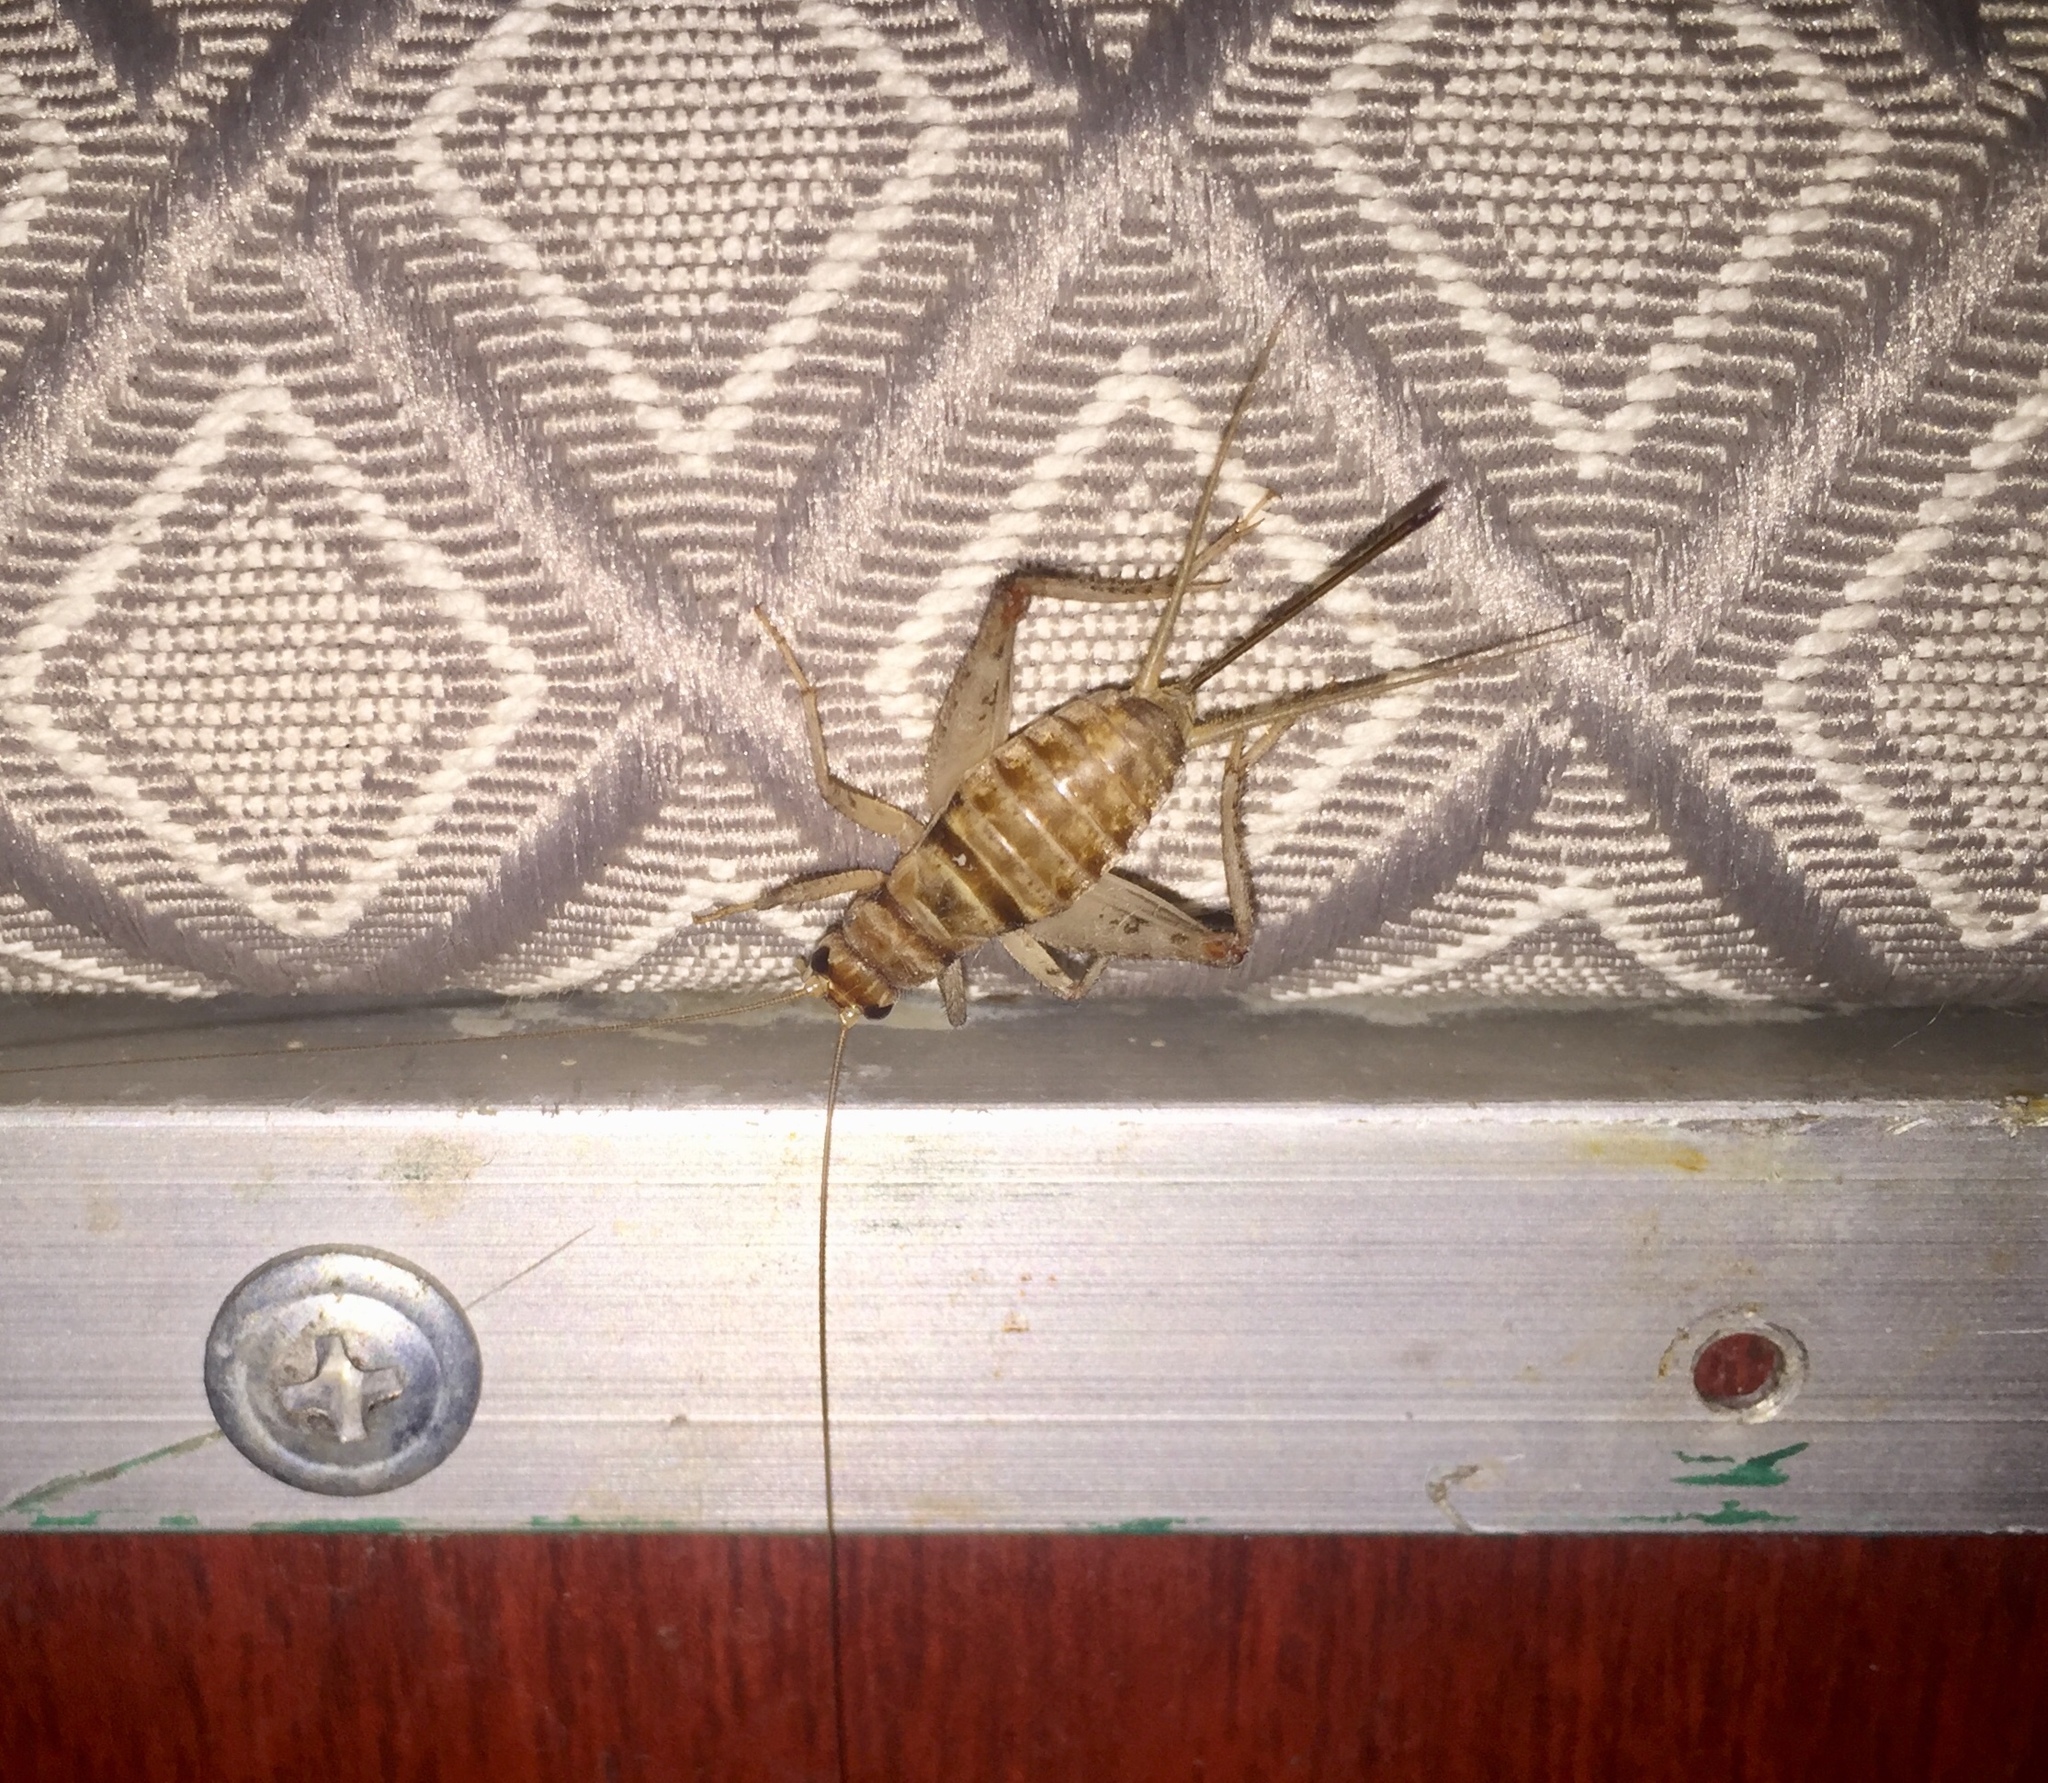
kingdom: Animalia
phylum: Arthropoda
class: Insecta
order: Orthoptera
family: Gryllidae
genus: Gryllodes
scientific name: Gryllodes sigillatus
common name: Tropical house cricket
